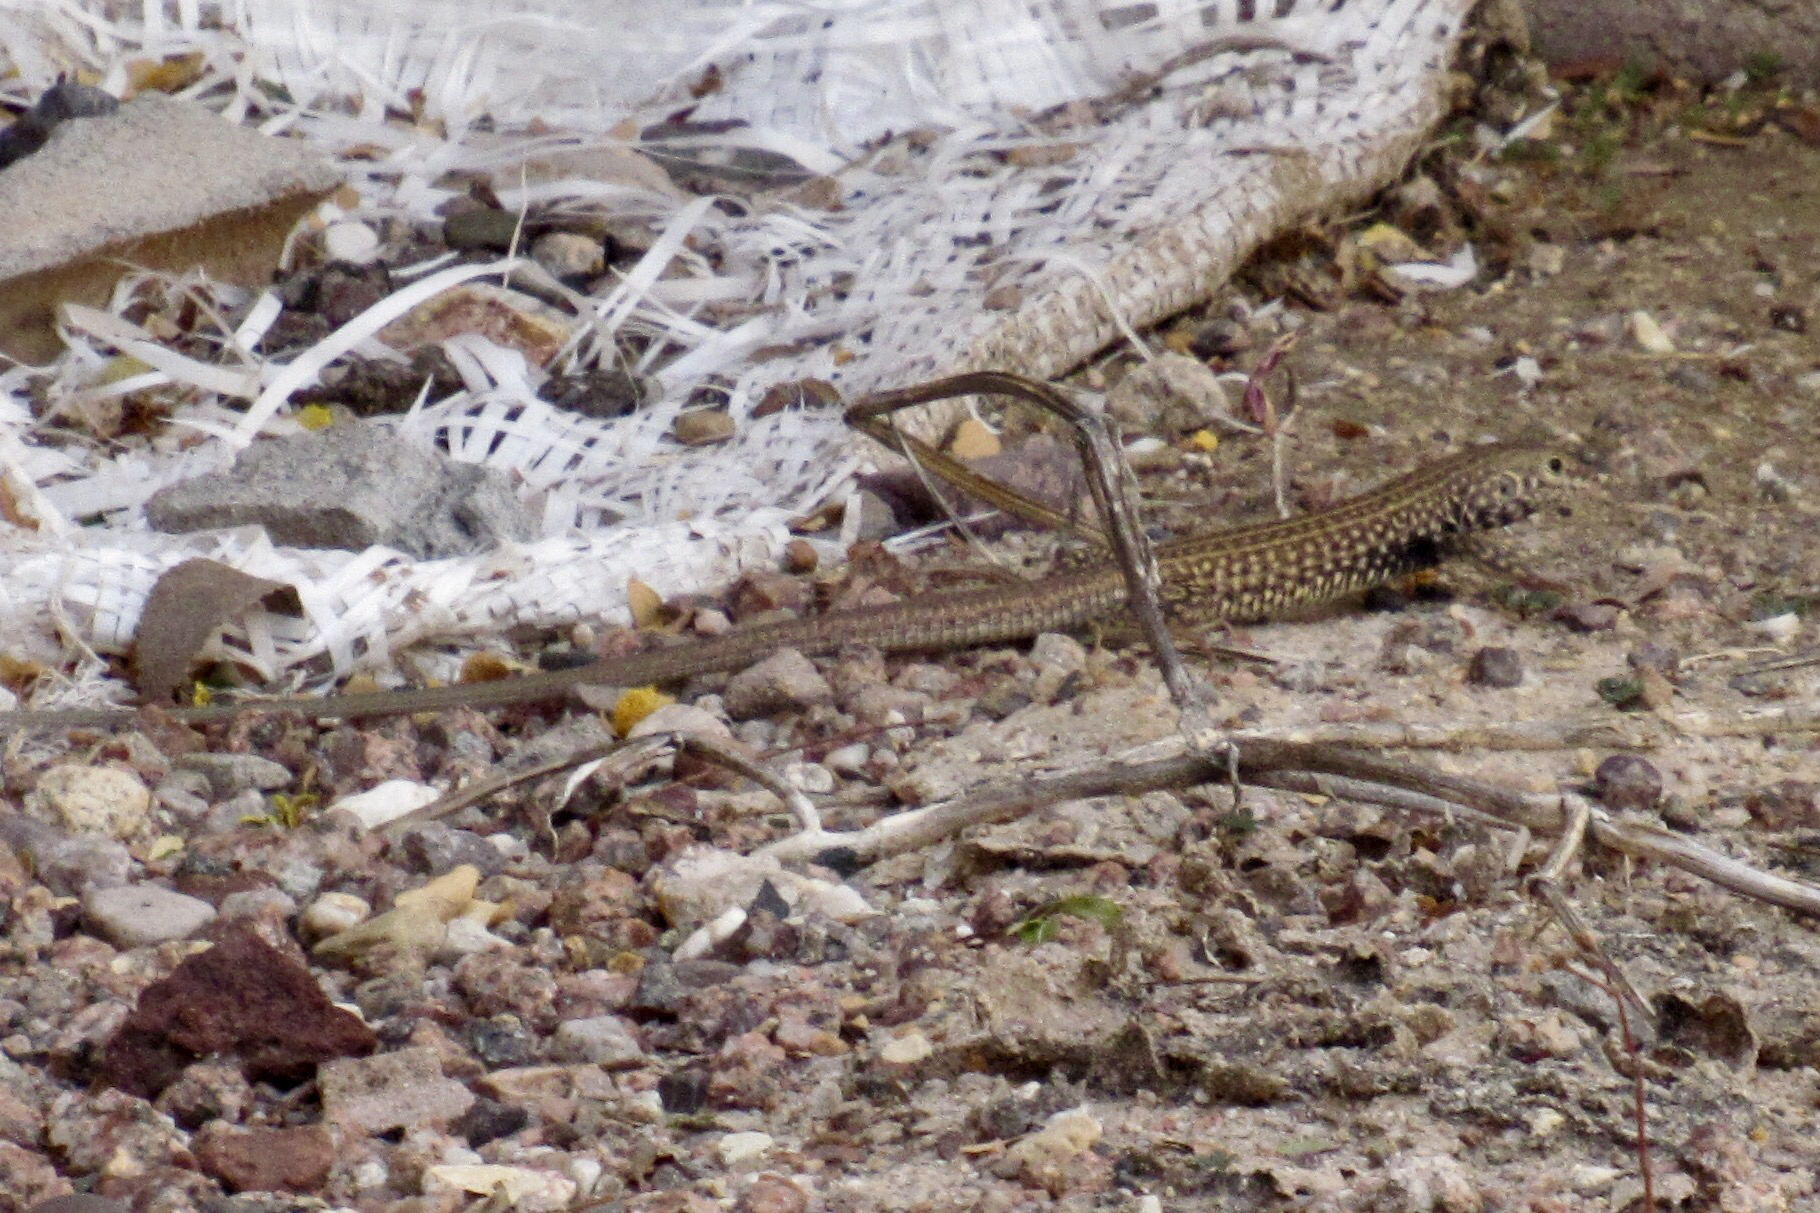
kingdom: Animalia
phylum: Chordata
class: Squamata
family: Teiidae
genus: Aspidoscelis
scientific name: Aspidoscelis tigris
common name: Tiger whiptail
